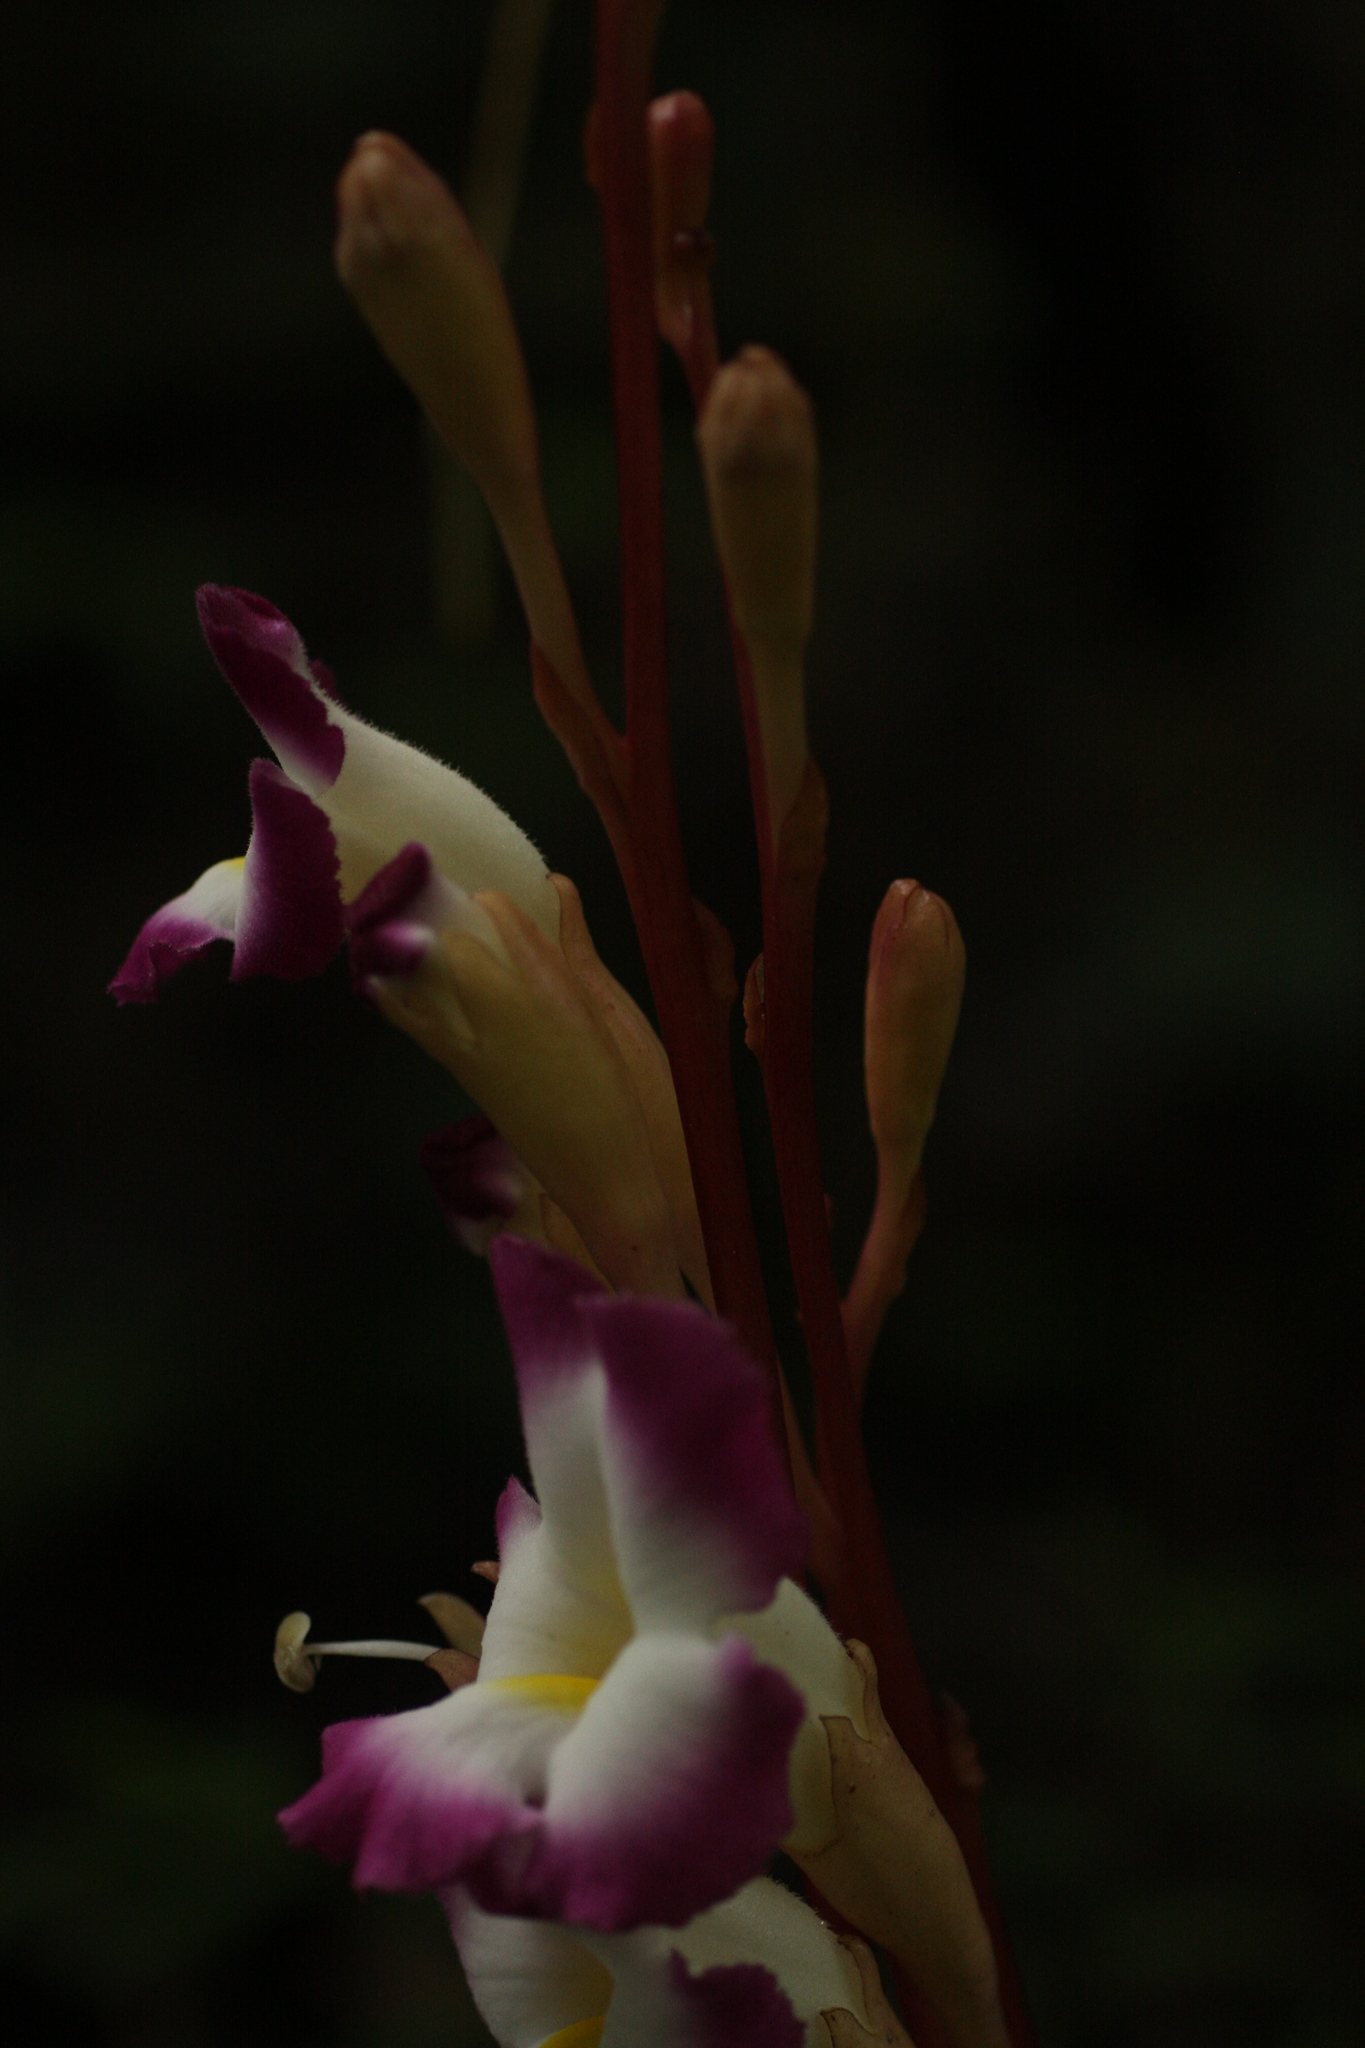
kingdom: Plantae
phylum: Tracheophyta
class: Magnoliopsida
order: Lamiales
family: Orobanchaceae
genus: Christisonia
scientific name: Christisonia tubulosa
